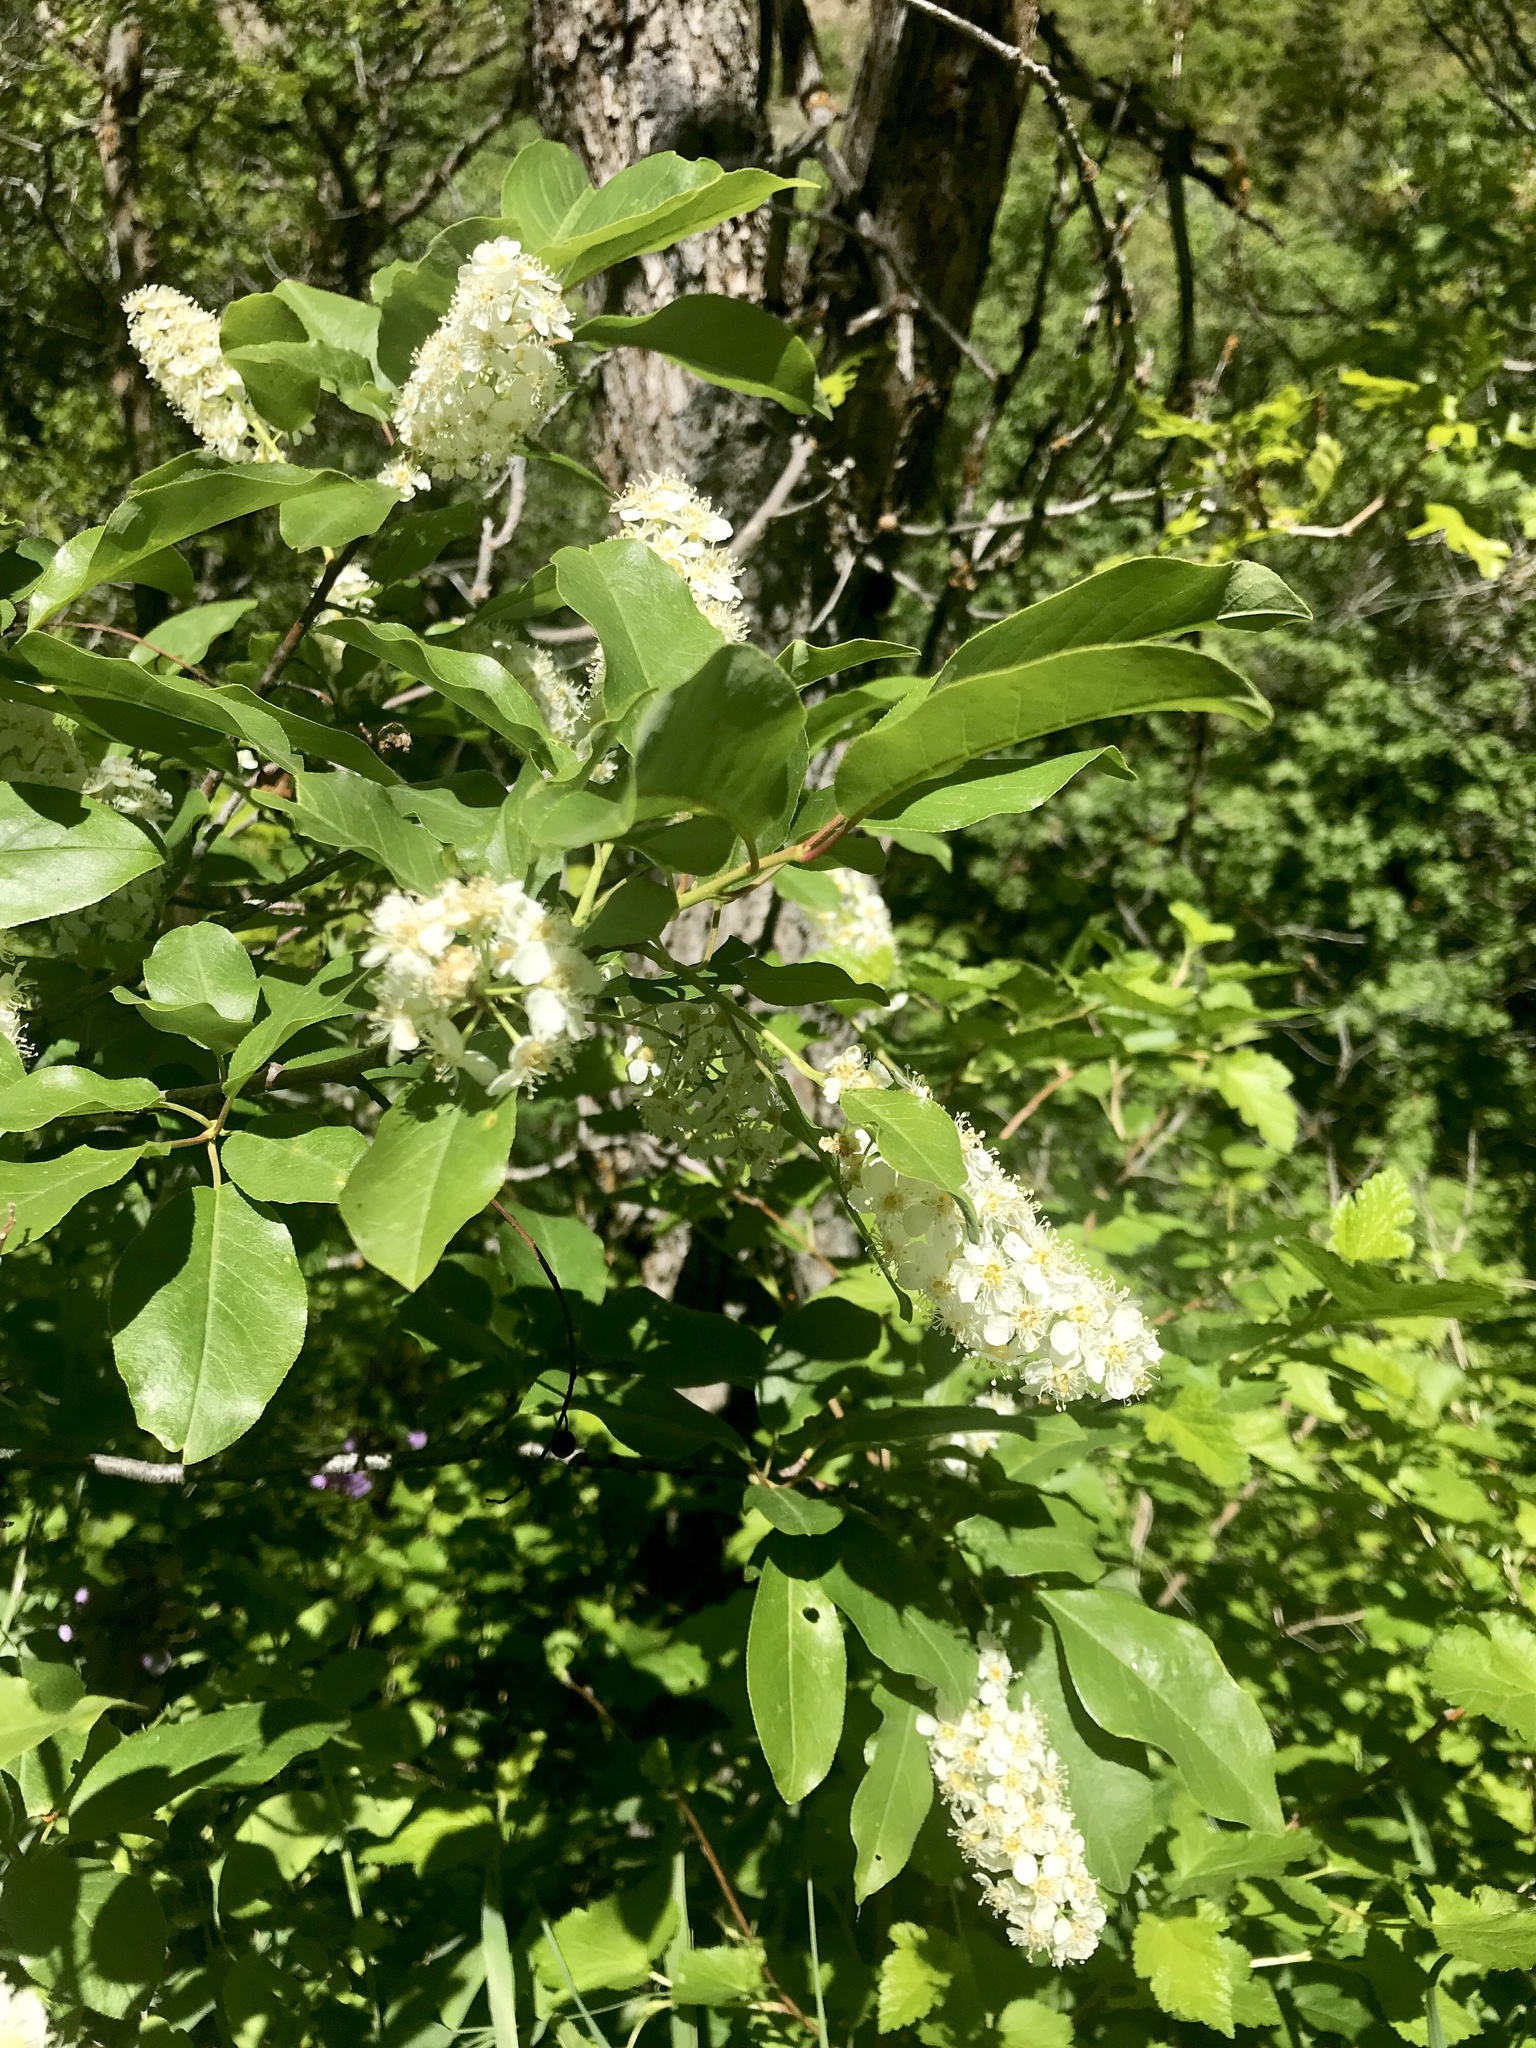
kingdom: Plantae
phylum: Tracheophyta
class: Magnoliopsida
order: Rosales
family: Rosaceae
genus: Prunus
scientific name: Prunus virginiana
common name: Chokecherry
